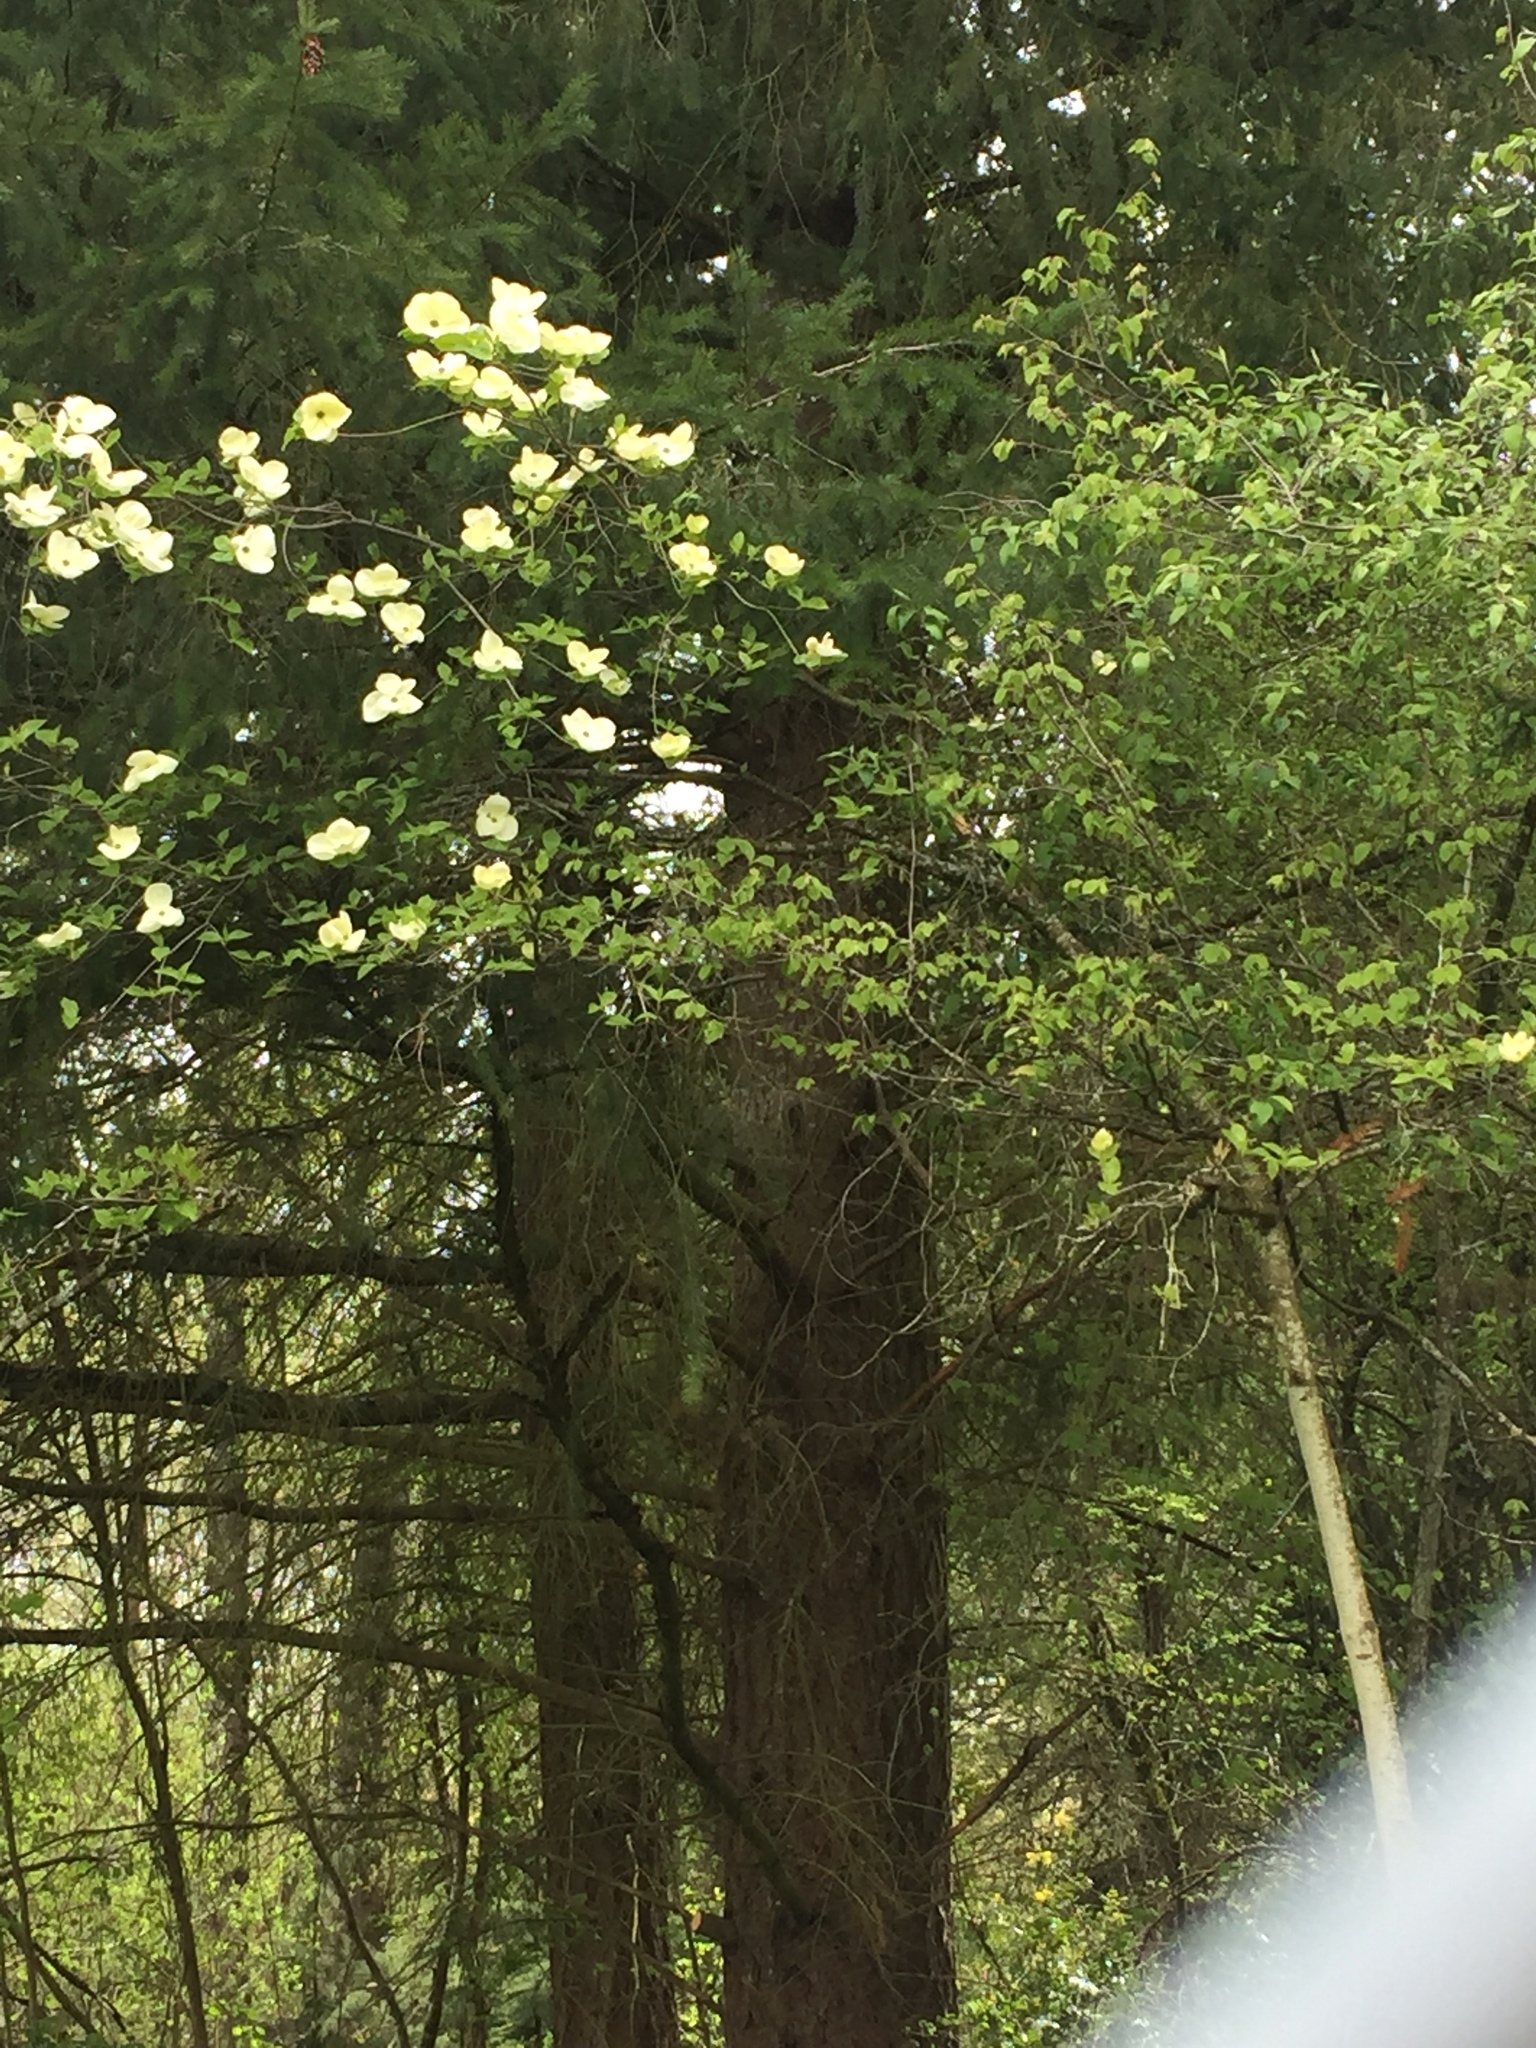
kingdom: Plantae
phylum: Tracheophyta
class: Magnoliopsida
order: Cornales
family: Cornaceae
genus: Cornus
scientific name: Cornus nuttallii
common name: Pacific dogwood
